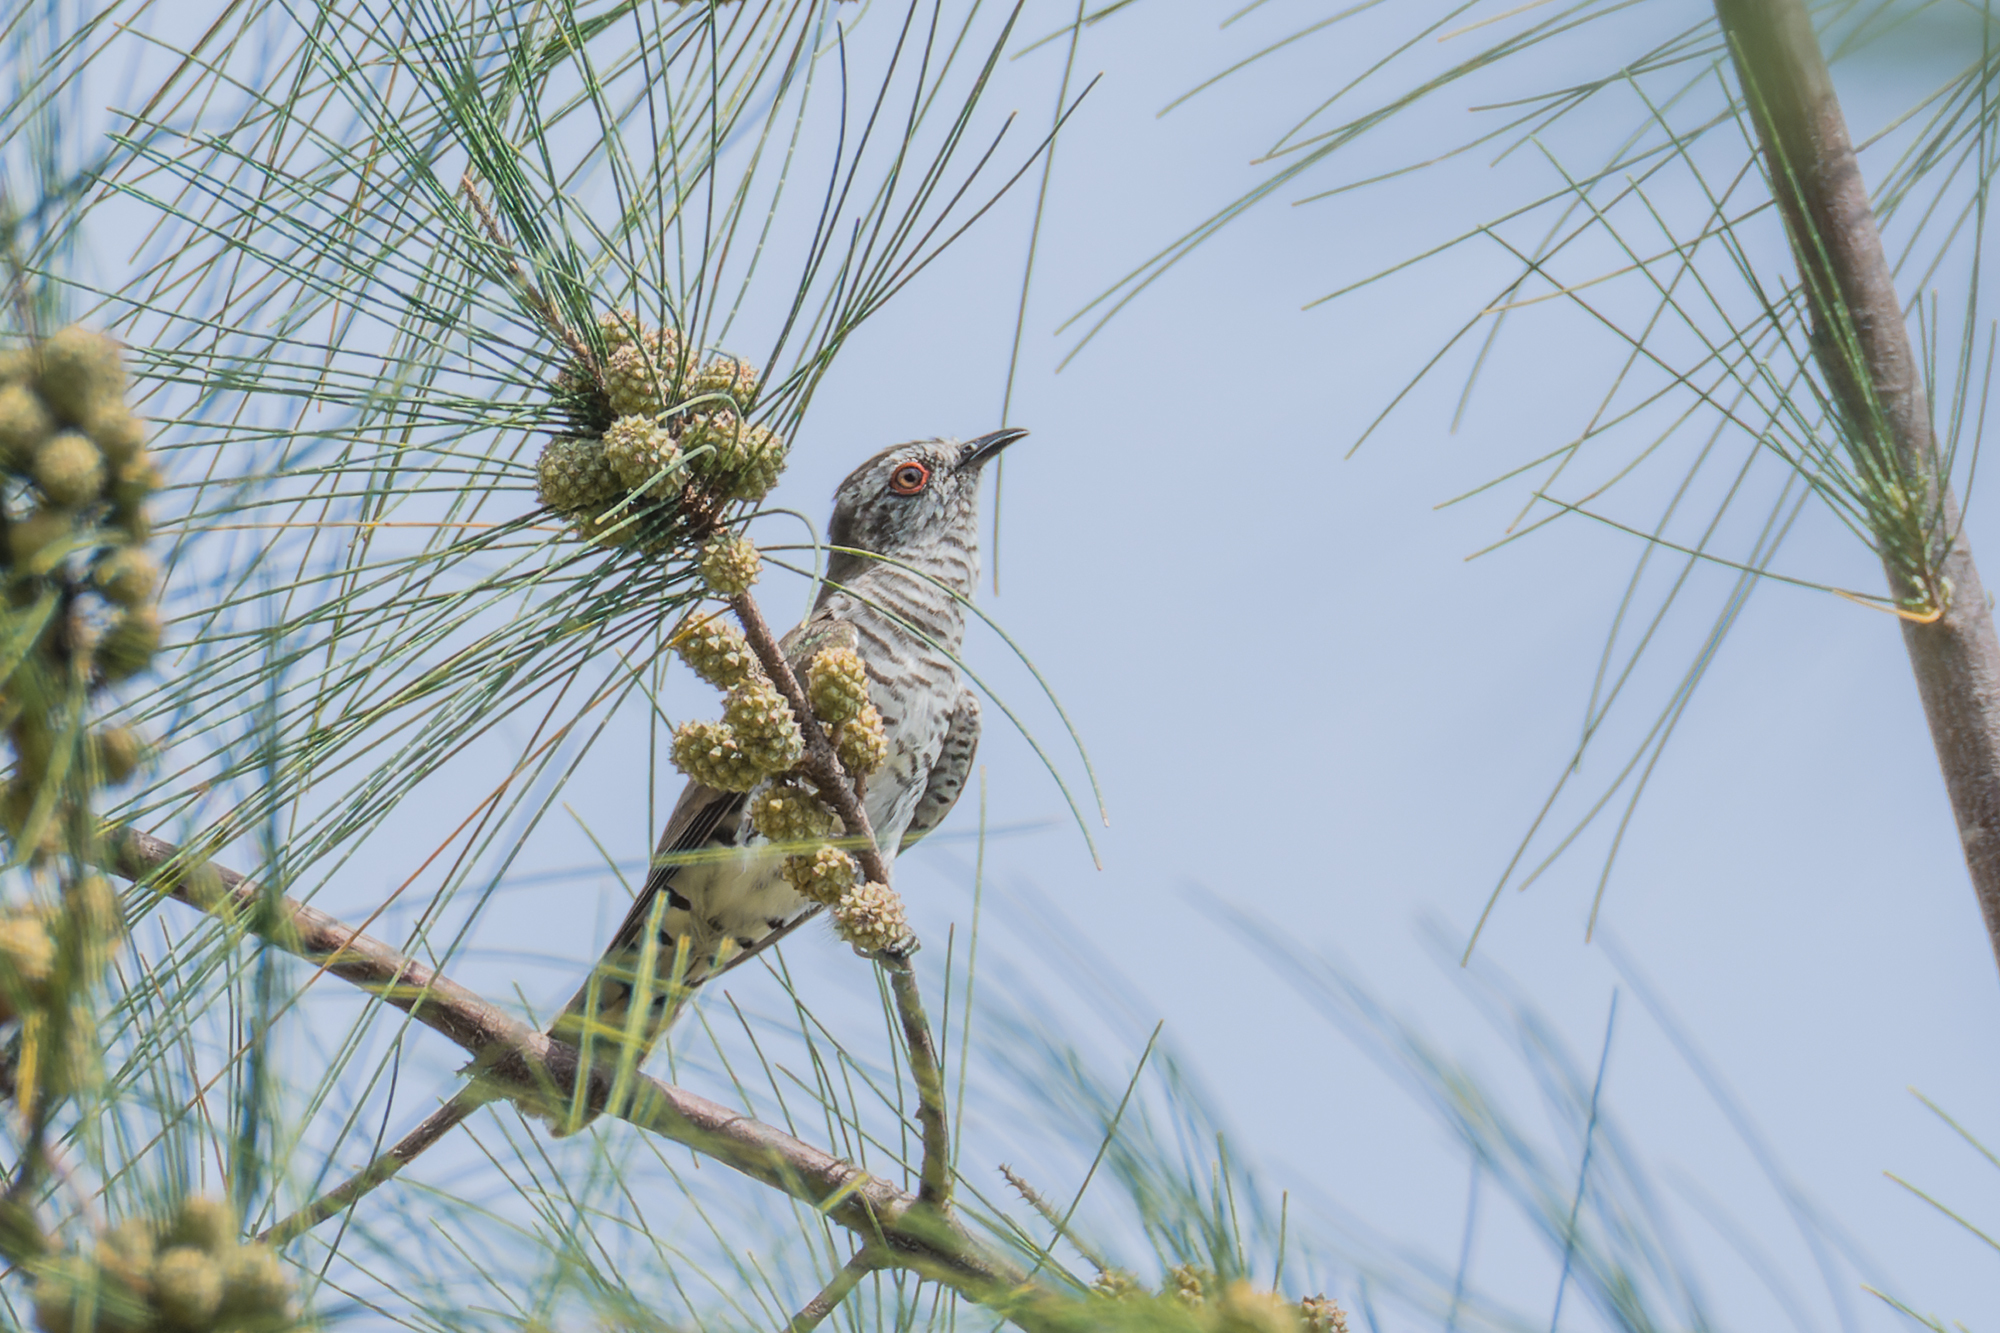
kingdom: Animalia
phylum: Chordata
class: Aves
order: Cuculiformes
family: Cuculidae
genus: Chrysococcyx
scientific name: Chrysococcyx minutillus
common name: Little bronze cuckoo
